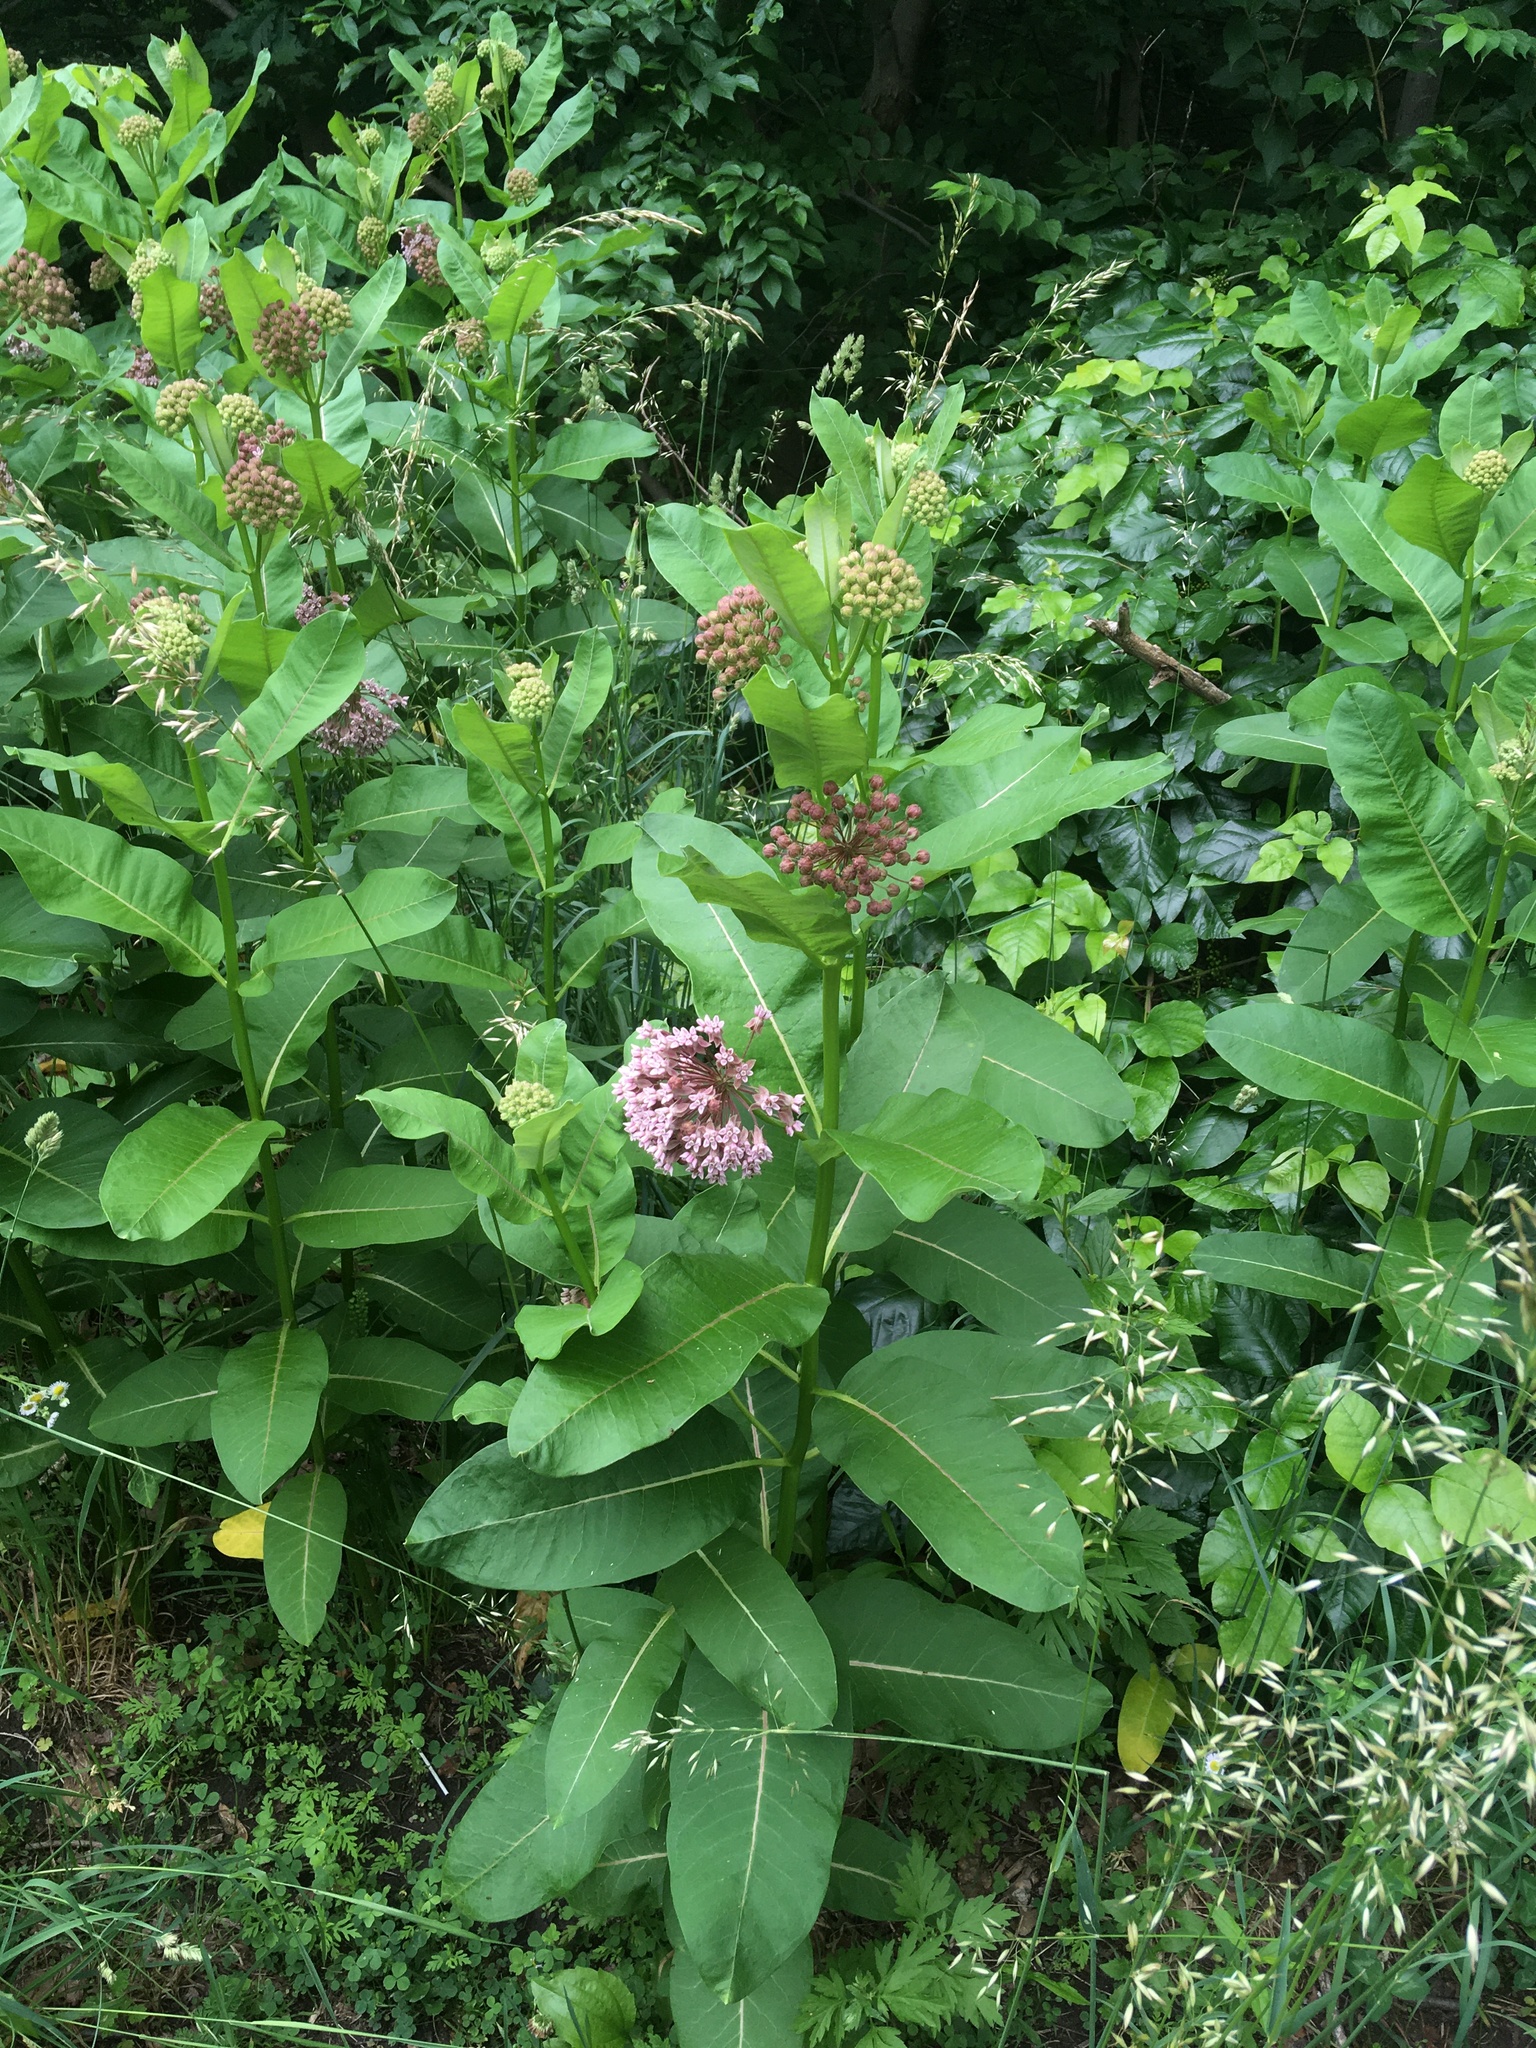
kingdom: Plantae
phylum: Tracheophyta
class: Magnoliopsida
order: Gentianales
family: Apocynaceae
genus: Asclepias
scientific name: Asclepias syriaca
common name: Common milkweed
